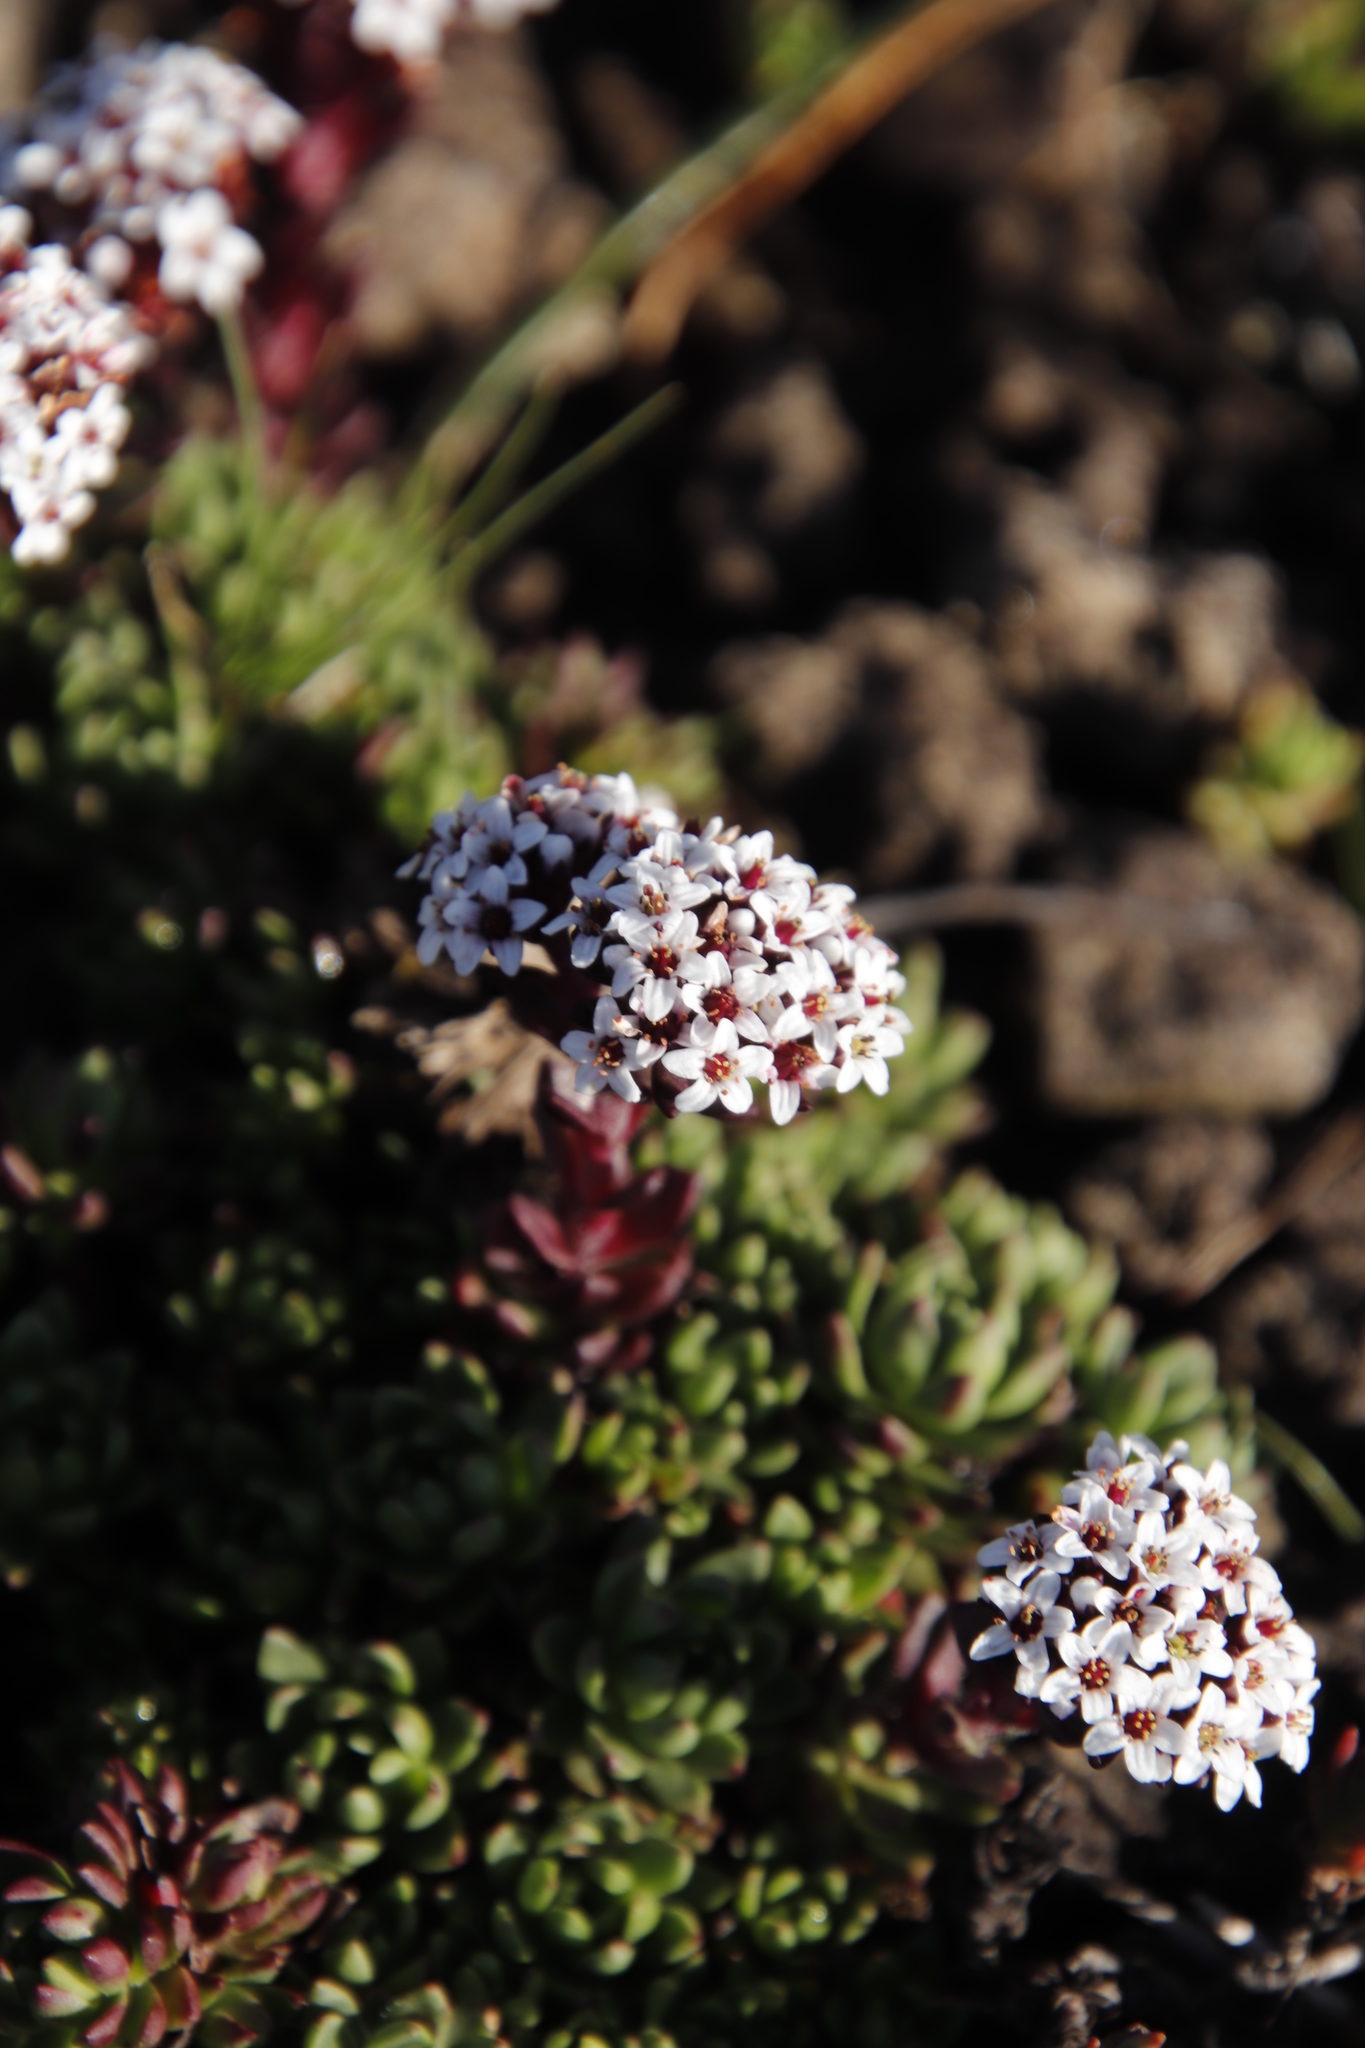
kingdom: Plantae
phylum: Tracheophyta
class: Magnoliopsida
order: Saxifragales
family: Crassulaceae
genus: Crassula
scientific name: Crassula setulosa
